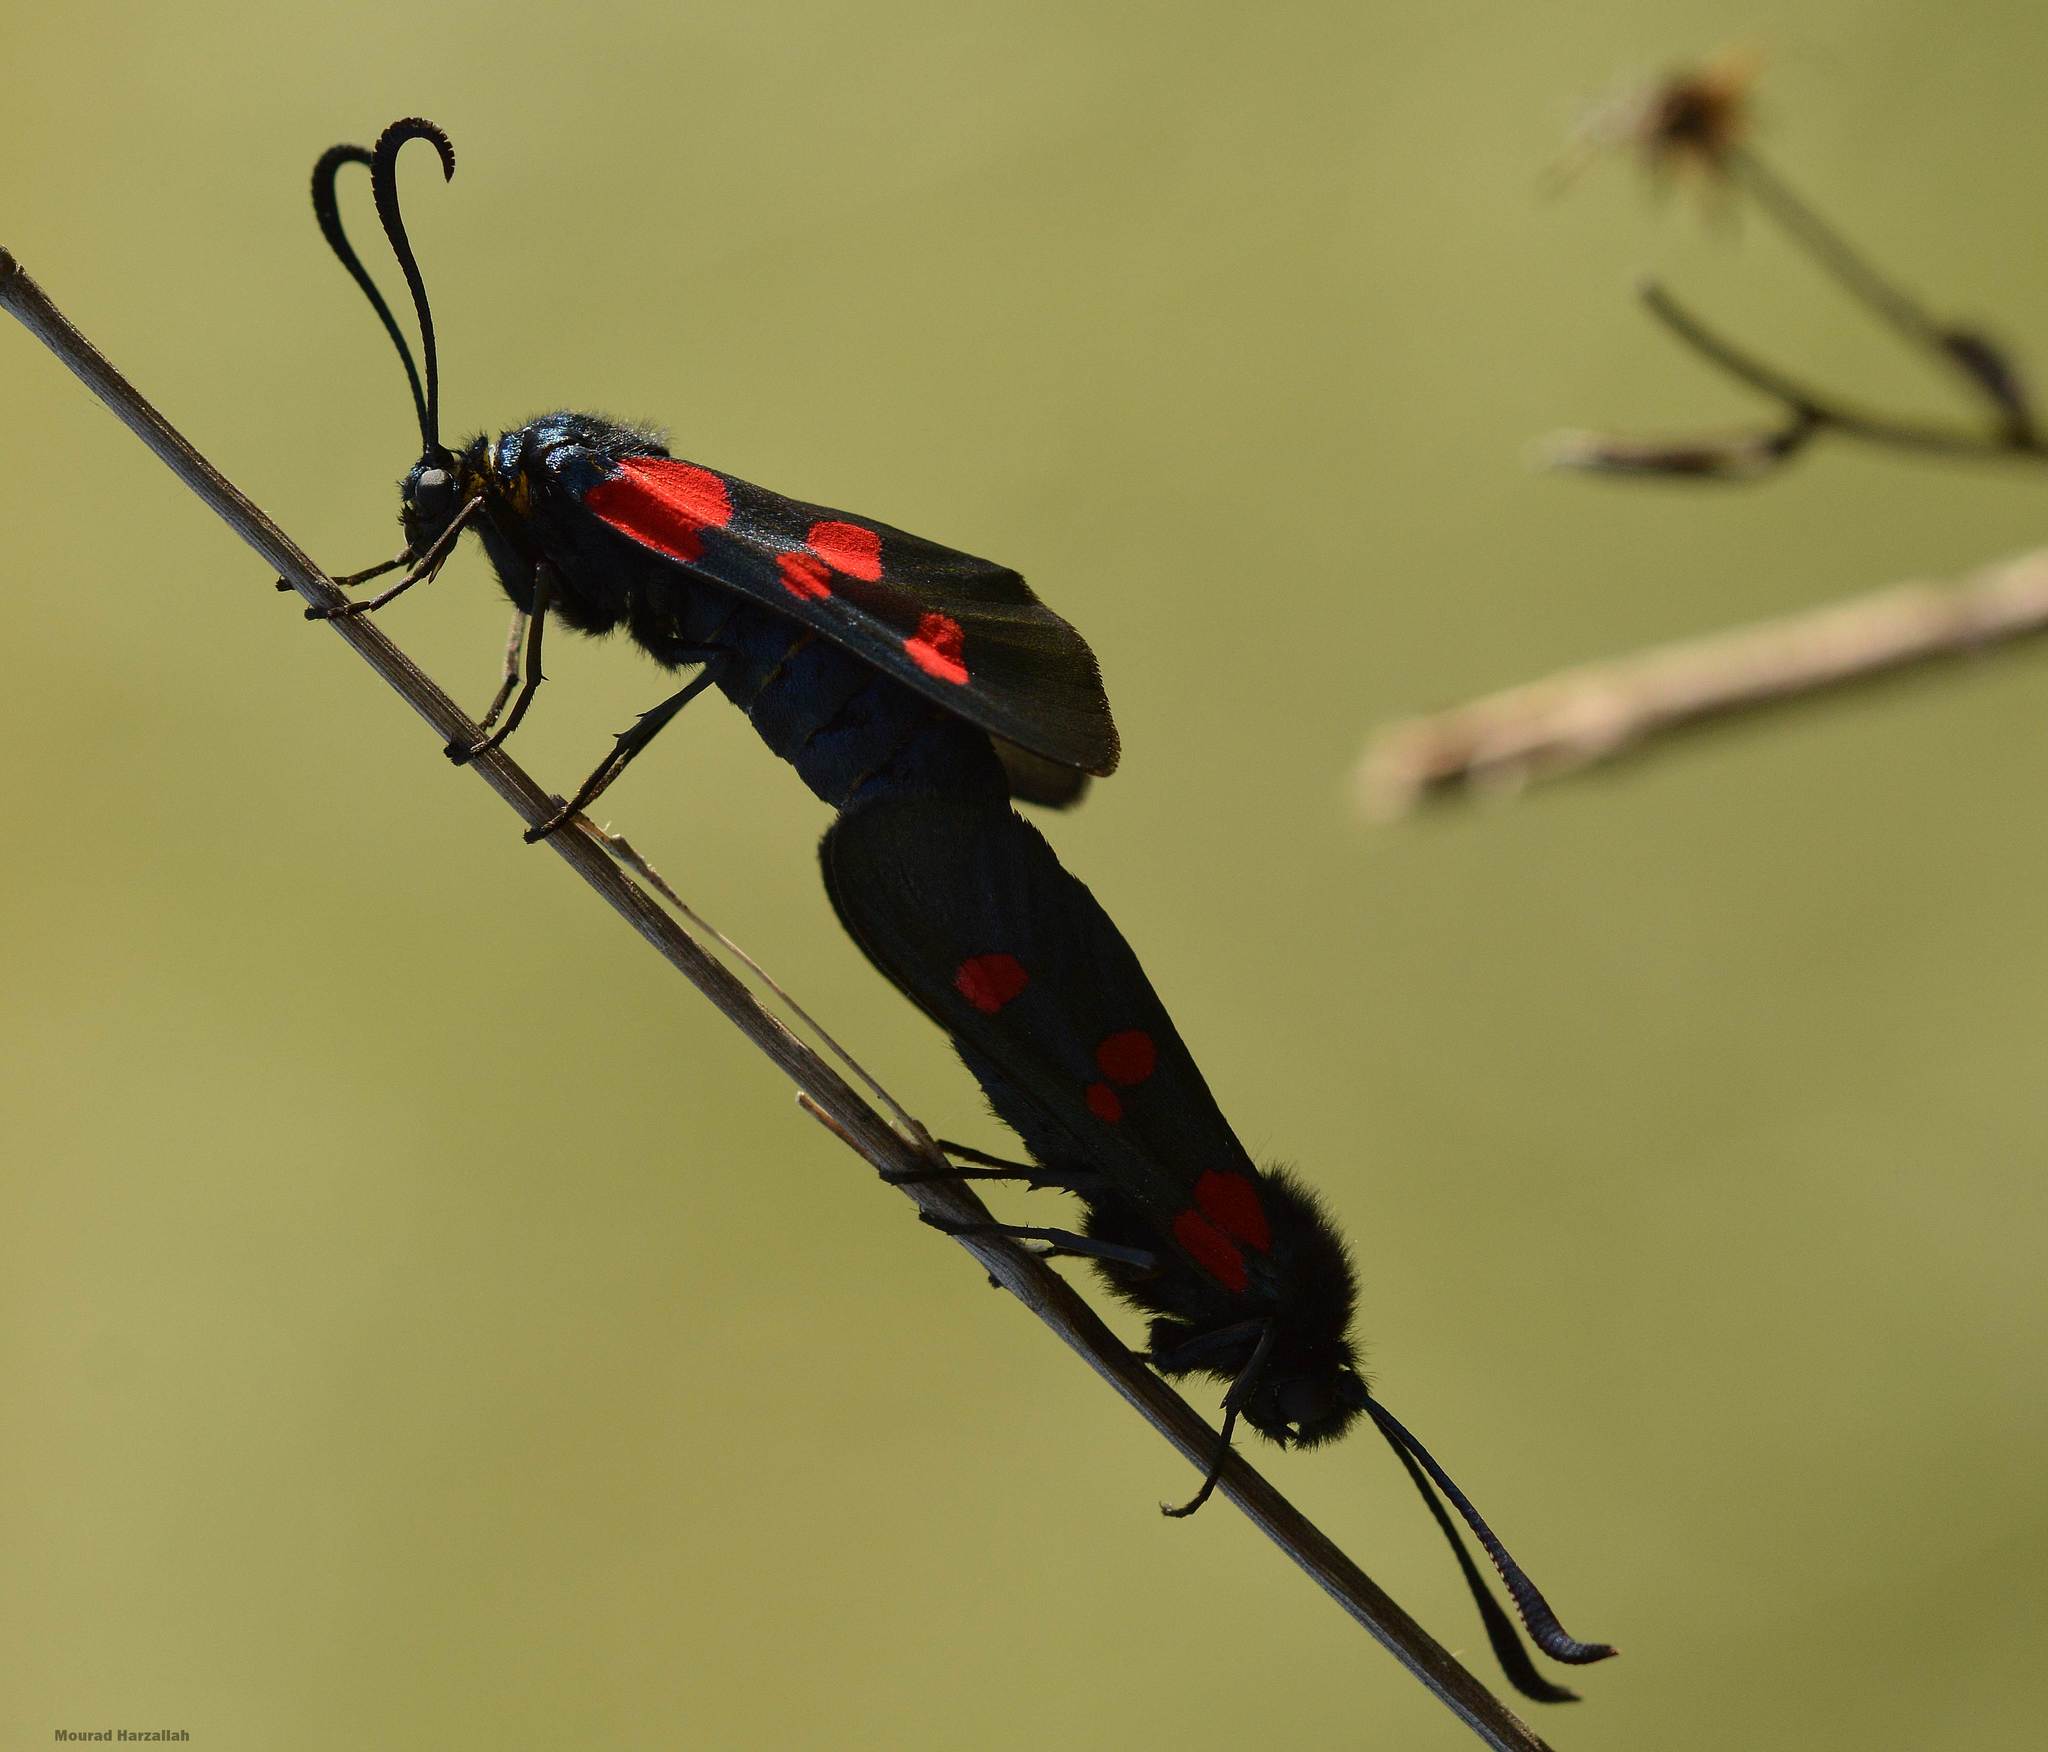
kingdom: Animalia
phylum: Arthropoda
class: Insecta
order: Lepidoptera
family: Zygaenidae
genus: Zygaena
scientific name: Zygaena trifolii
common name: Five-spot burnet
